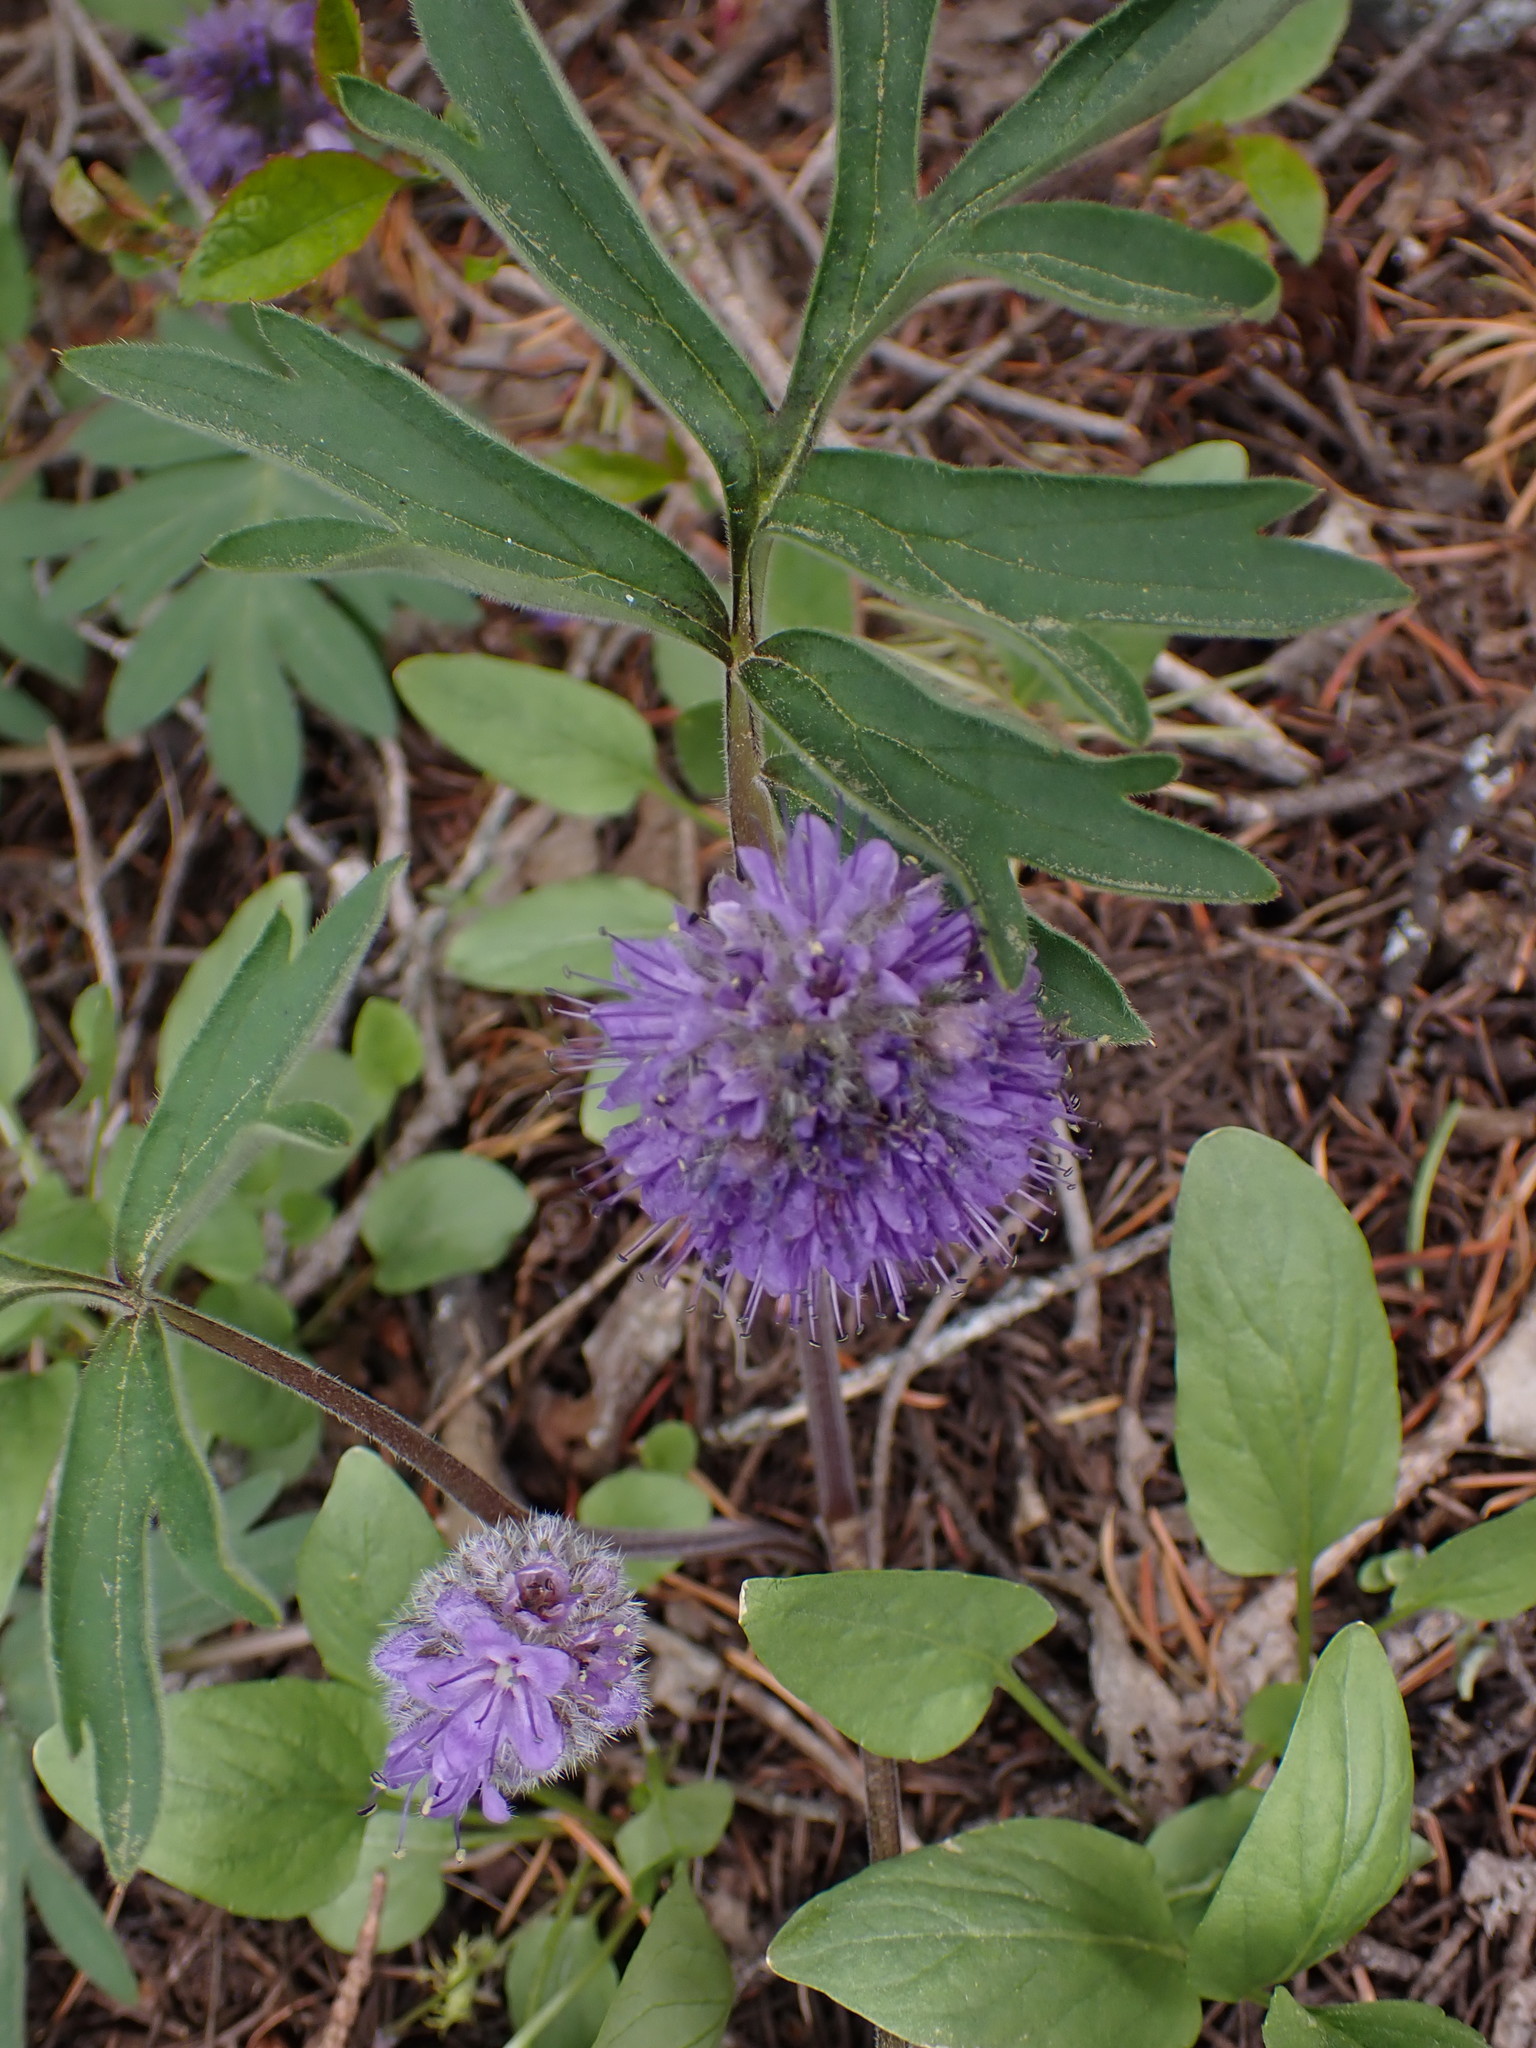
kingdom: Plantae
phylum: Tracheophyta
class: Magnoliopsida
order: Boraginales
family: Hydrophyllaceae
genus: Hydrophyllum
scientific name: Hydrophyllum capitatum
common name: Woollen-breeches
